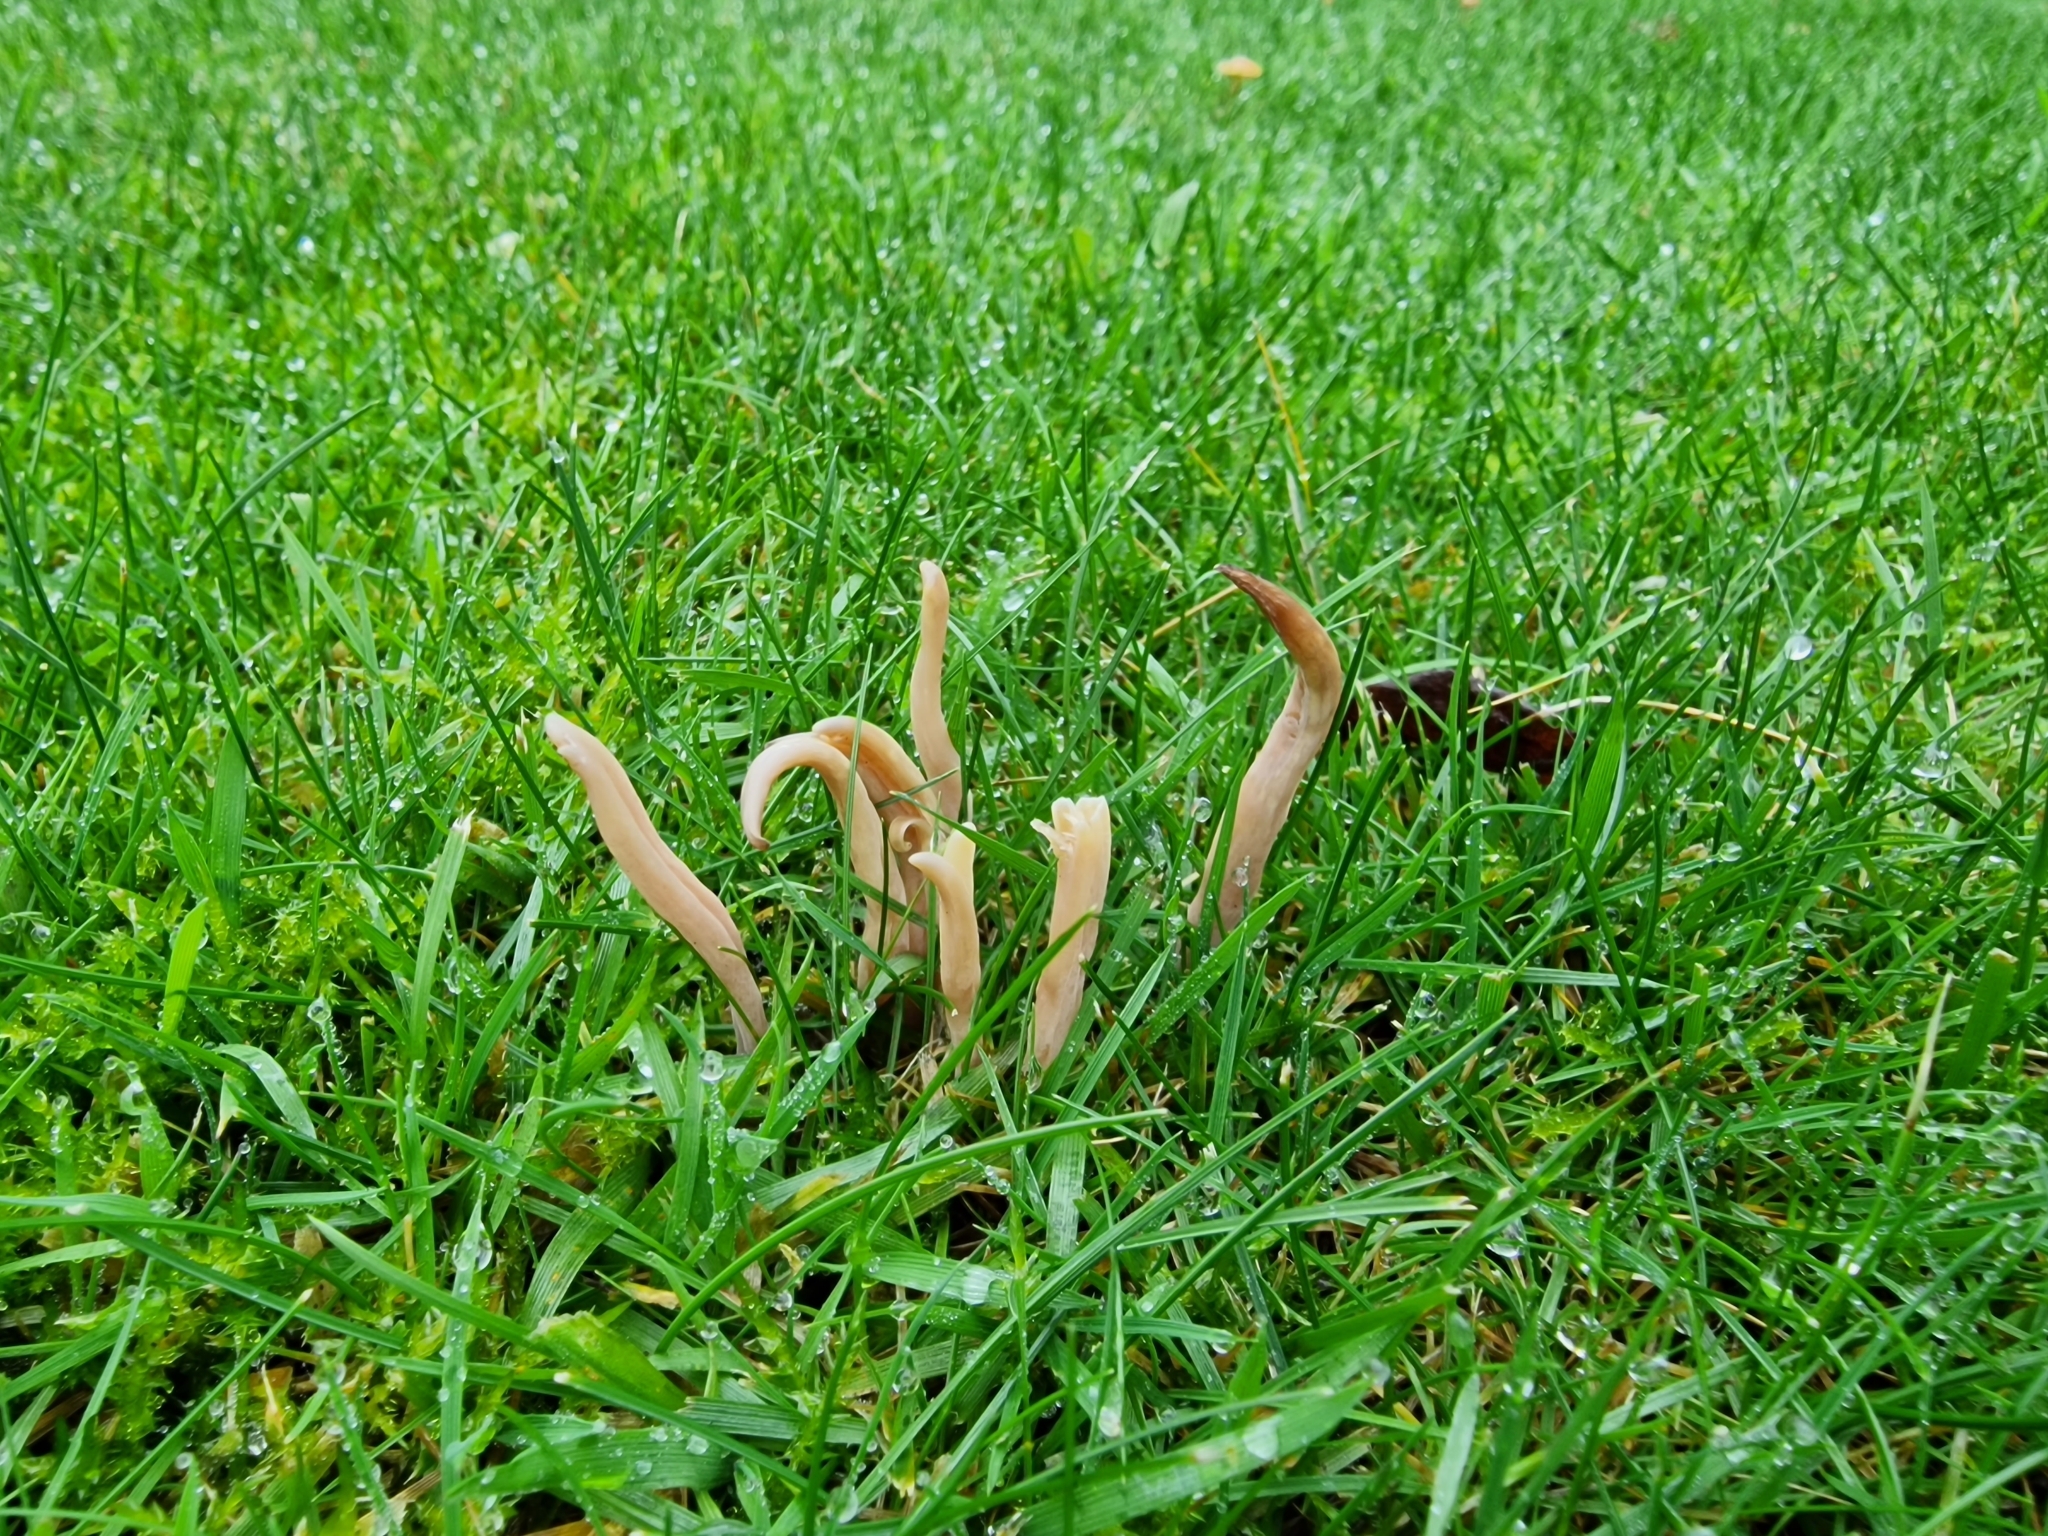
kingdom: Fungi
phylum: Basidiomycota
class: Agaricomycetes
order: Agaricales
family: Clavariaceae
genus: Clavaria
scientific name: Clavaria fumosa
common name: Smoky spindles
